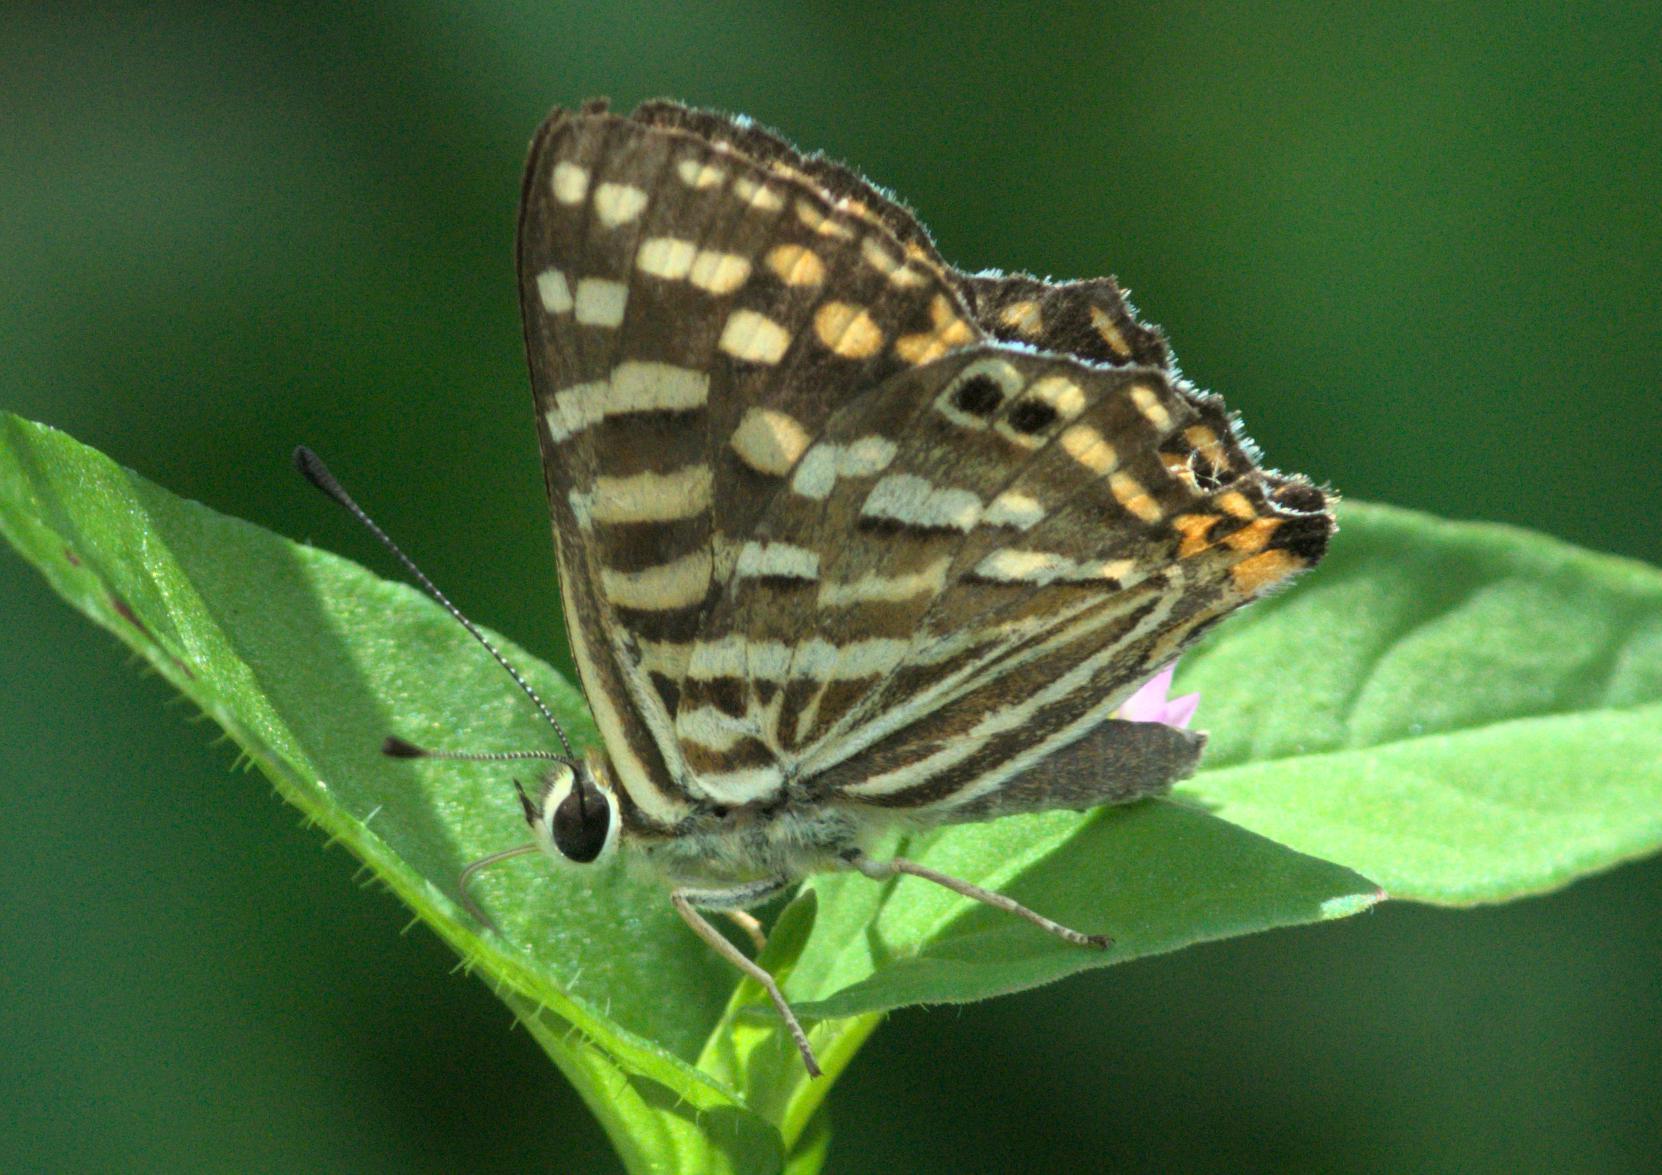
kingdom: Animalia
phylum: Arthropoda
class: Insecta
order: Lepidoptera
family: Lycaenidae
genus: Dodona
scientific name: Dodona durga
